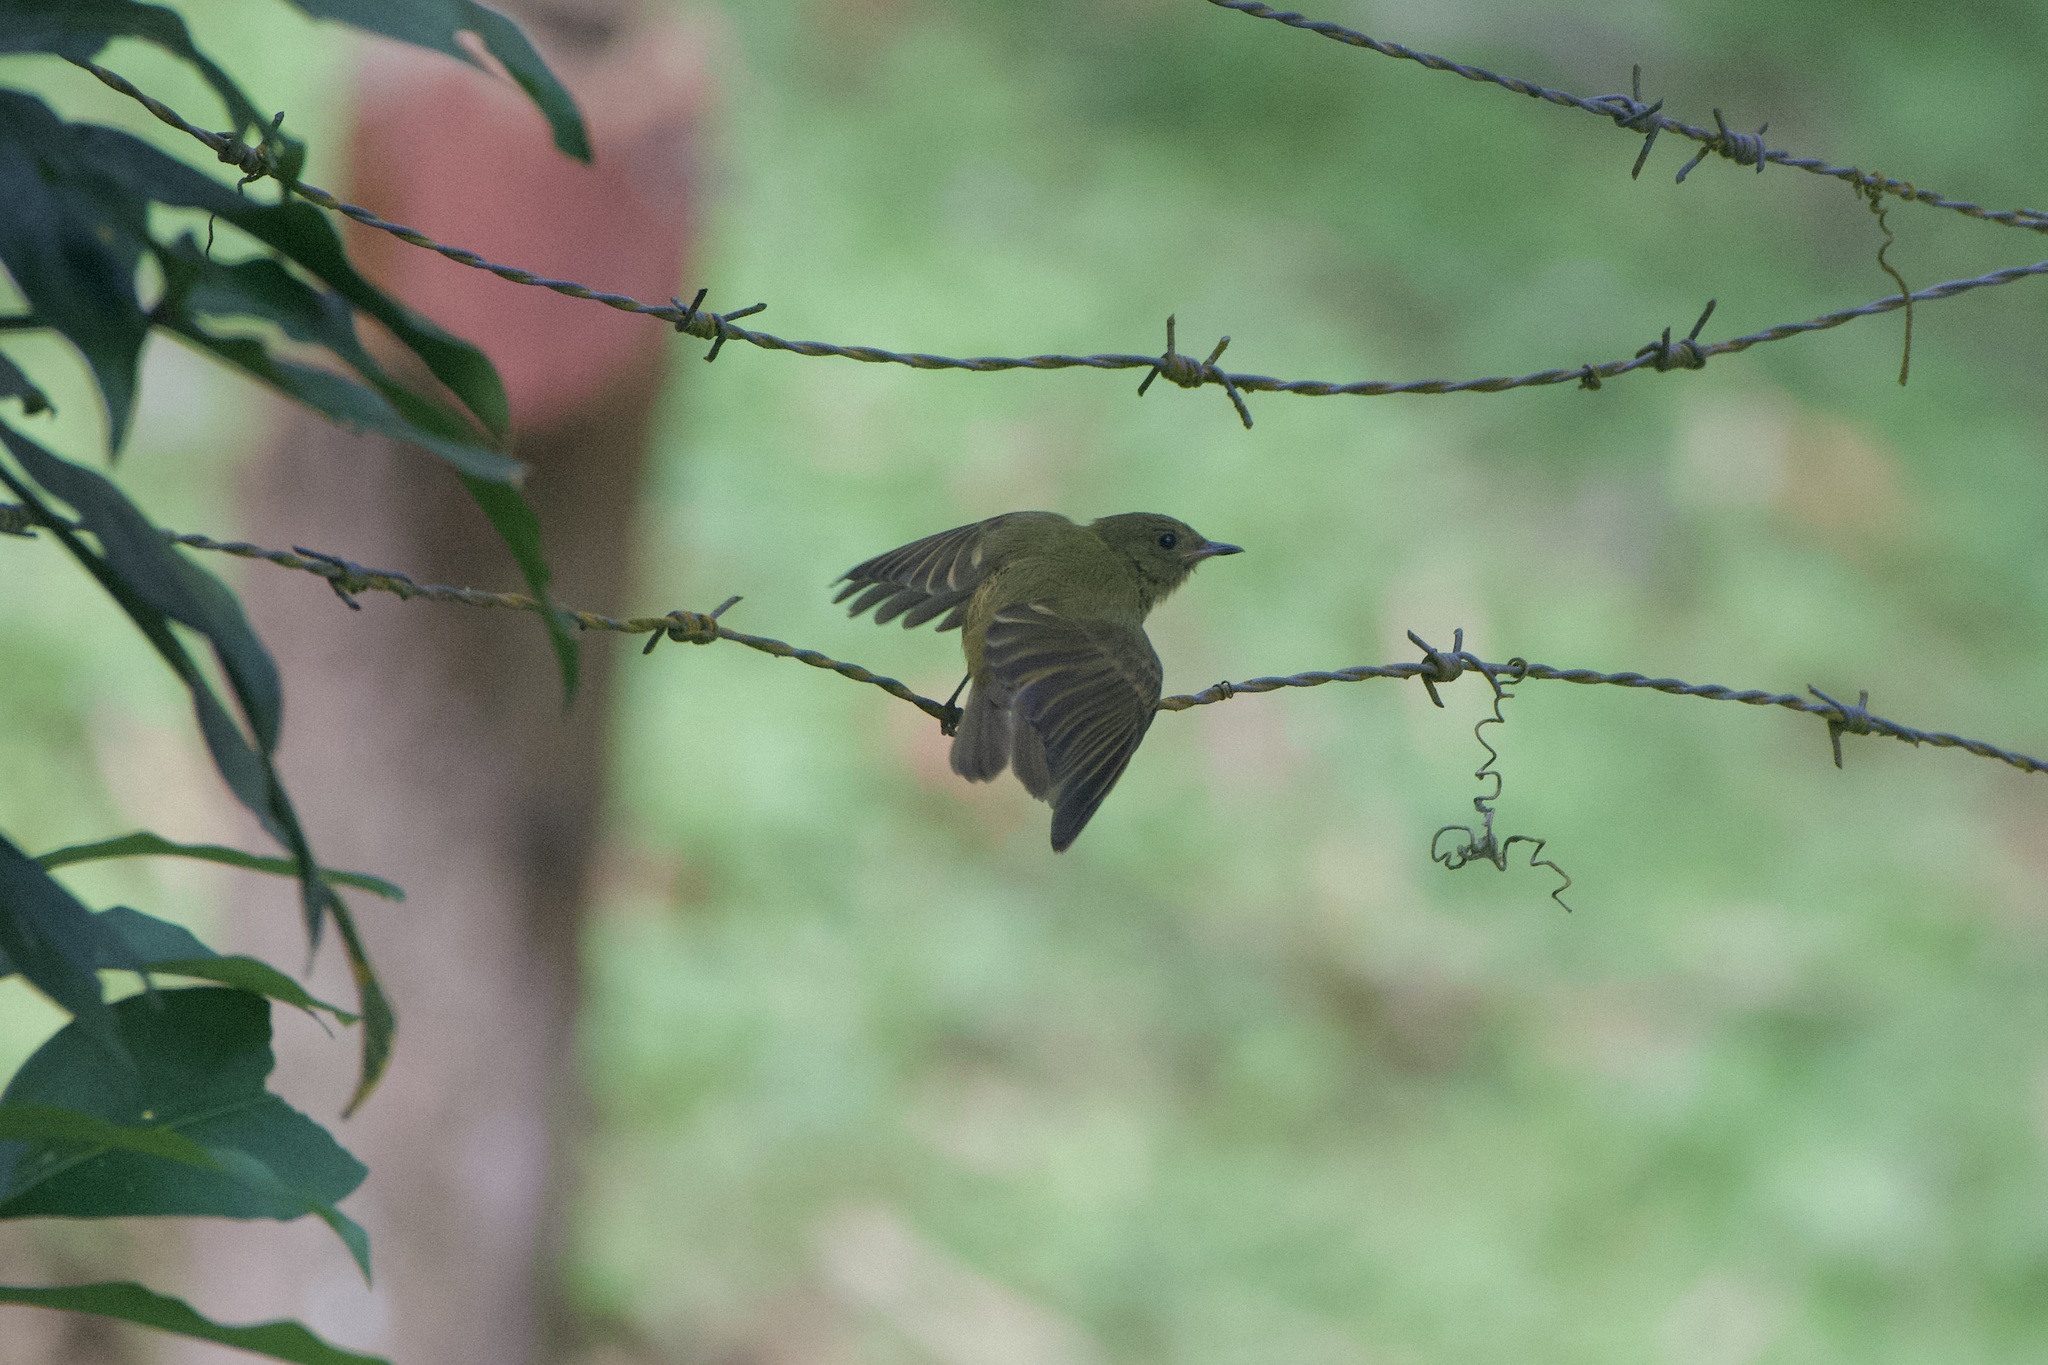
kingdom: Animalia
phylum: Chordata
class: Aves
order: Passeriformes
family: Tyrannidae
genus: Mionectes
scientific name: Mionectes oleagineus
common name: Ochre-bellied flycatcher
